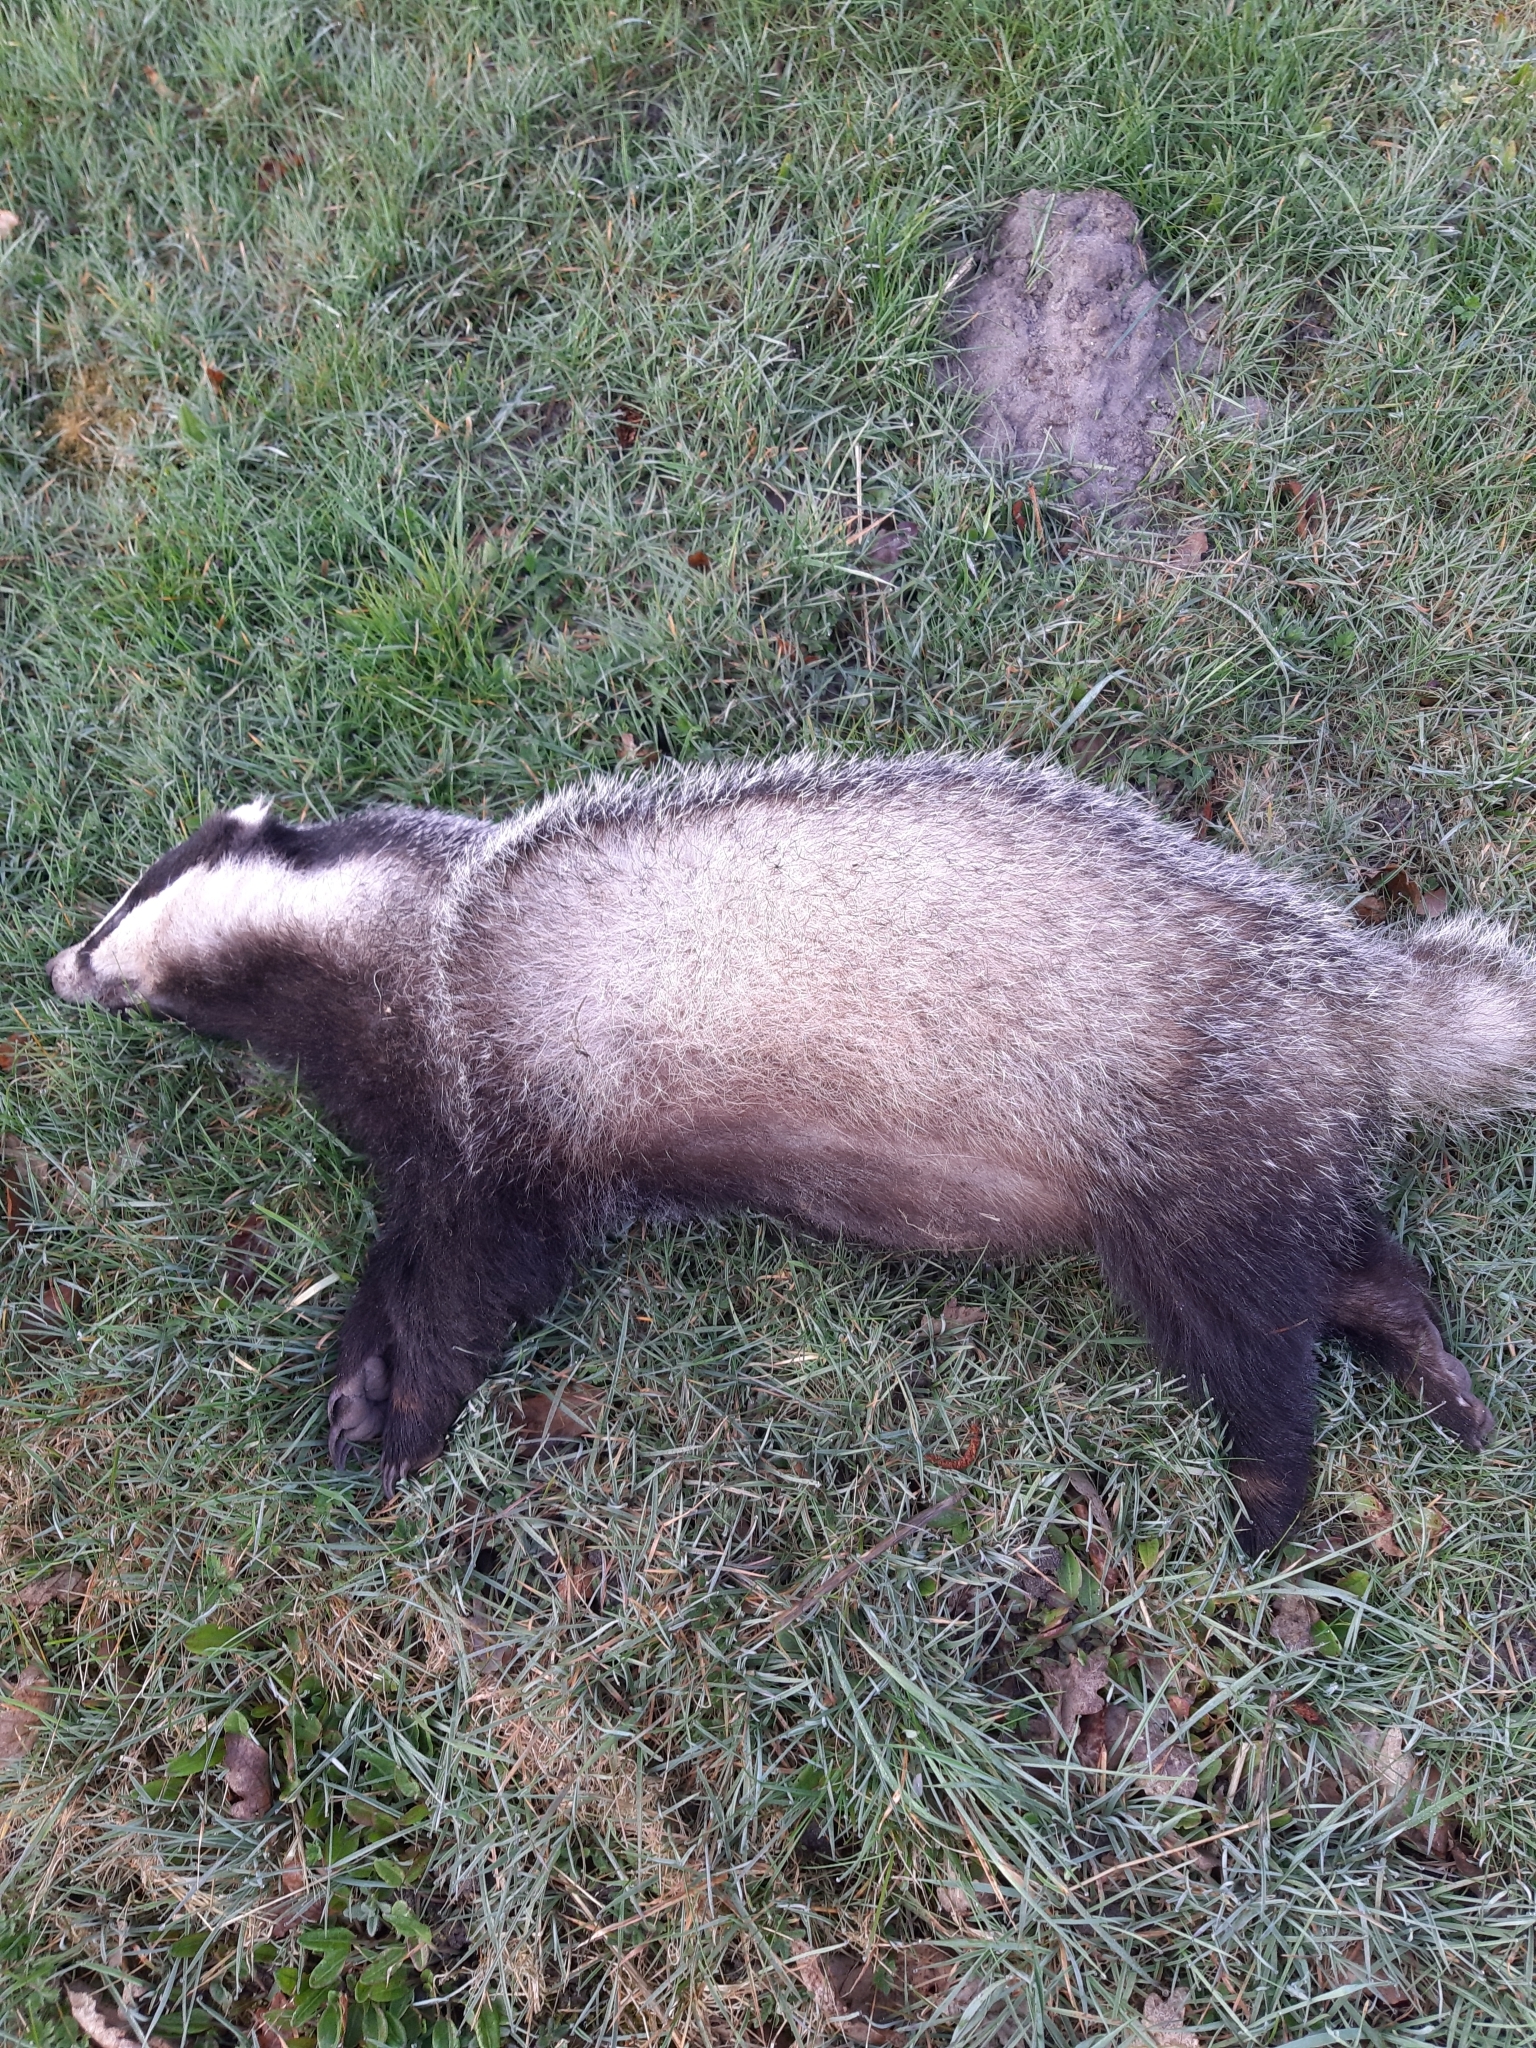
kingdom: Animalia
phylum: Chordata
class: Mammalia
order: Carnivora
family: Mustelidae
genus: Meles
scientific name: Meles meles
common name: Eurasian badger
